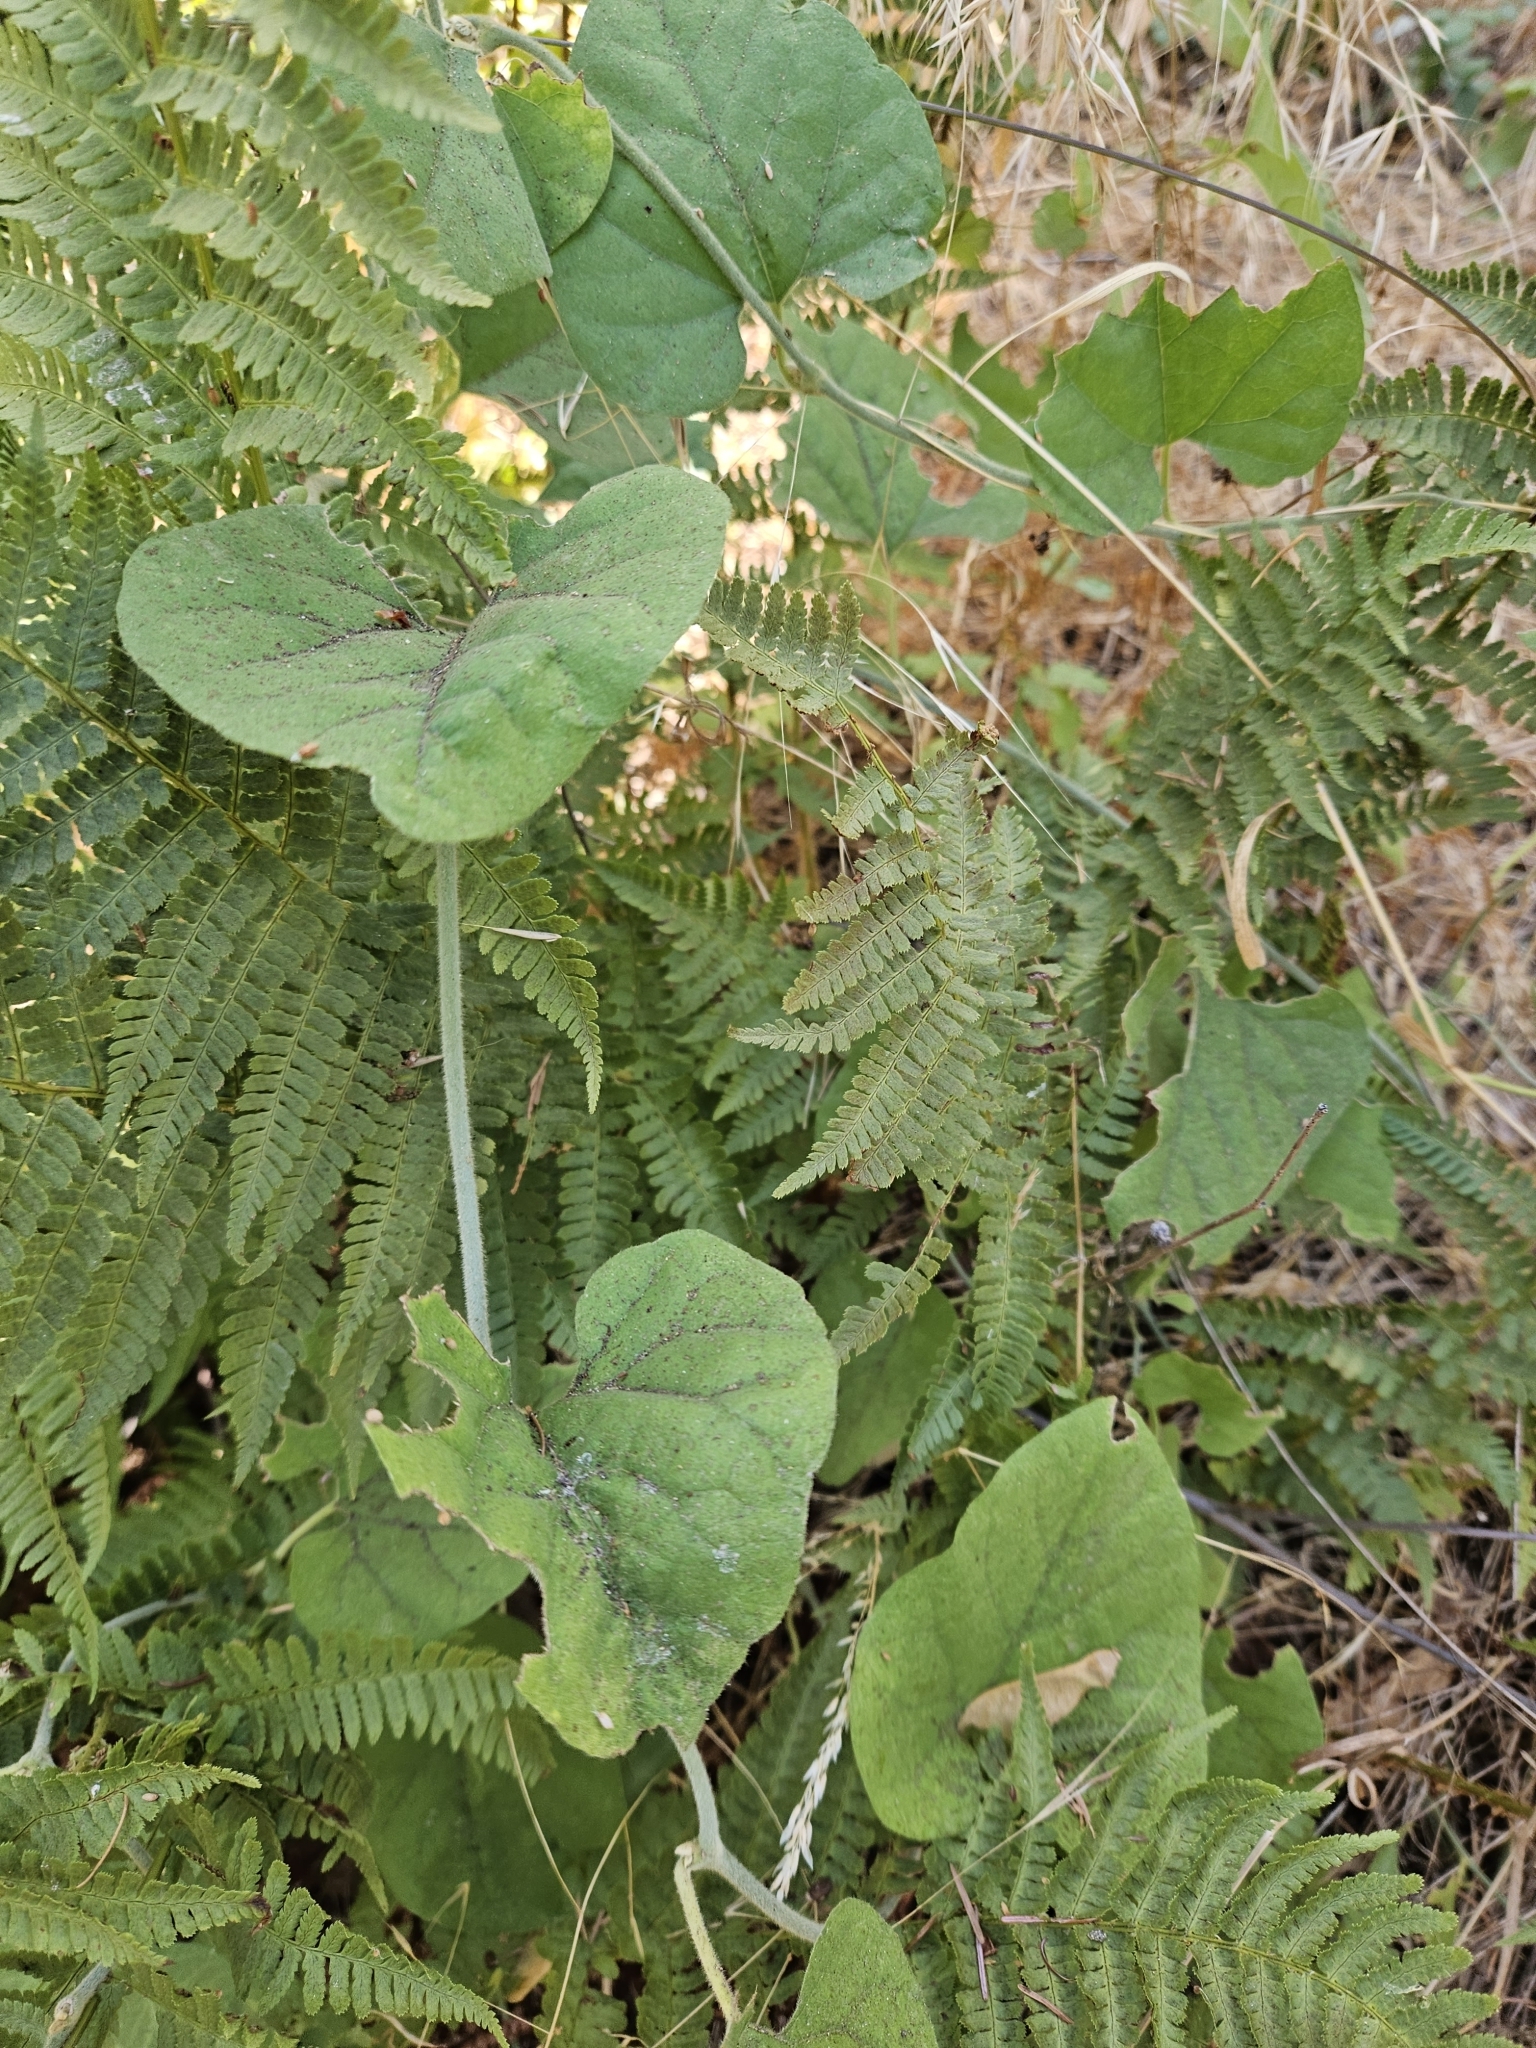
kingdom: Plantae
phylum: Tracheophyta
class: Magnoliopsida
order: Piperales
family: Aristolochiaceae
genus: Isotrema
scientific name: Isotrema californicum
